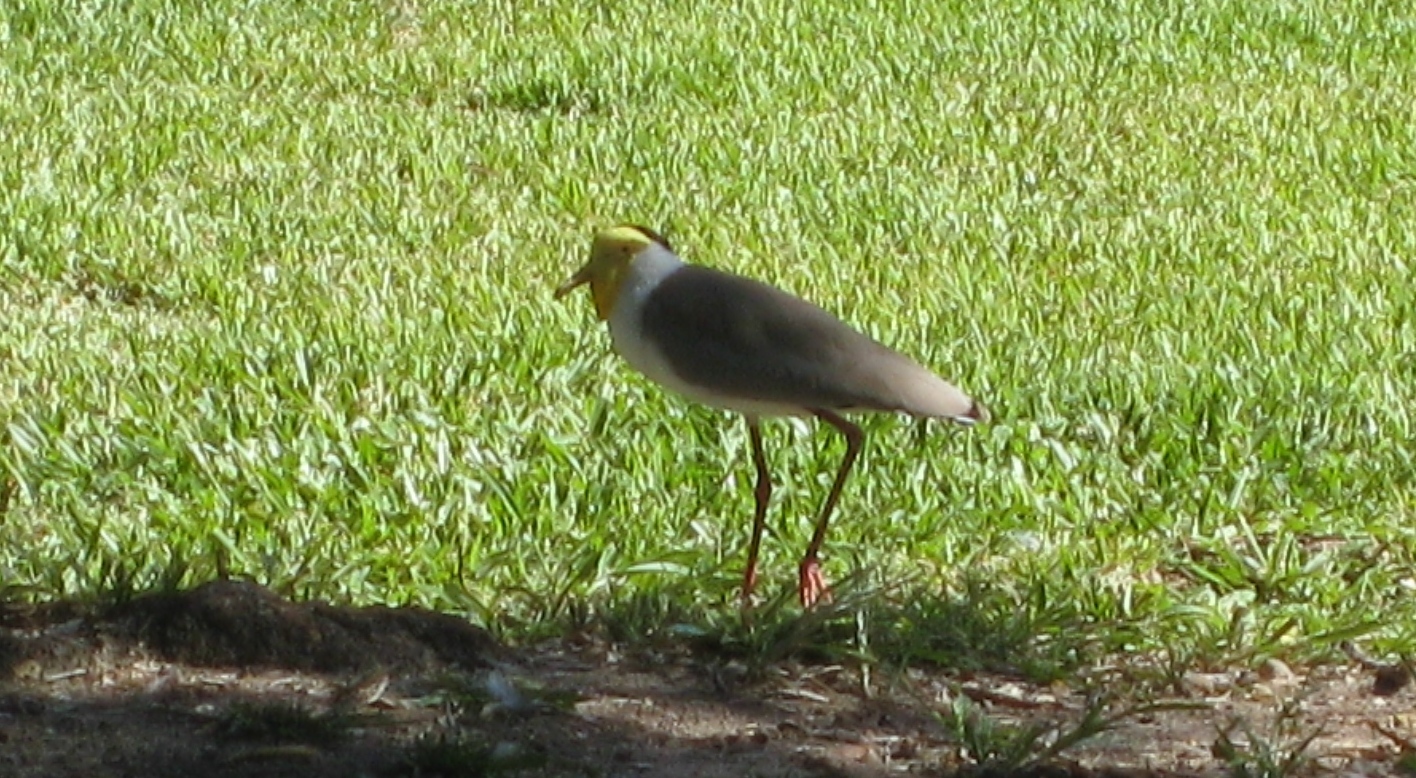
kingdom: Animalia
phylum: Chordata
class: Aves
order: Charadriiformes
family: Charadriidae
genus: Vanellus
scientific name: Vanellus miles
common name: Masked lapwing
